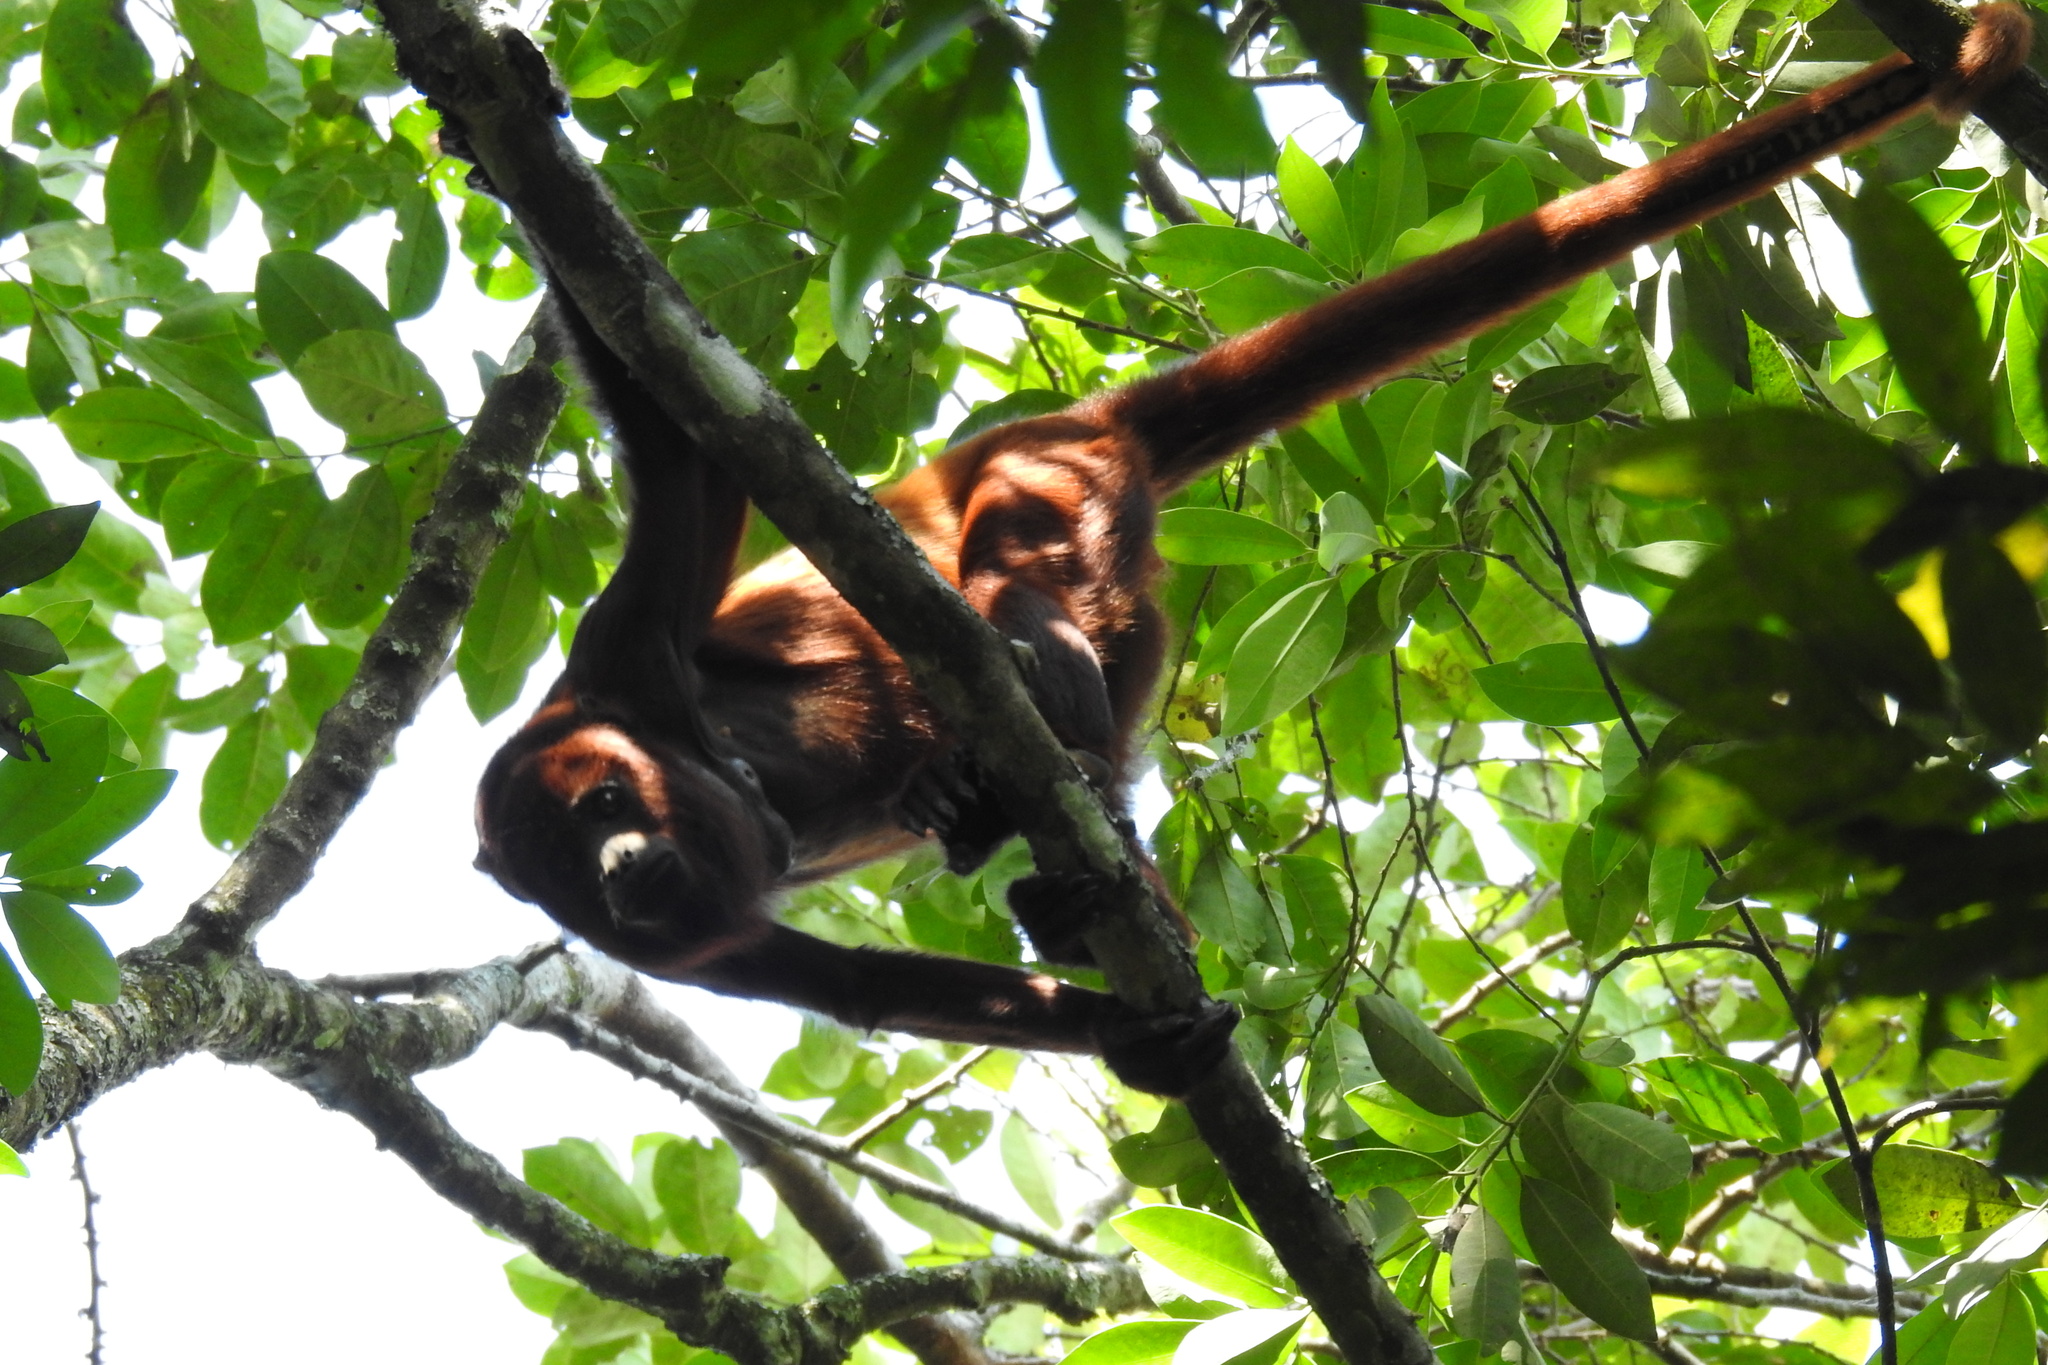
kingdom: Animalia
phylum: Chordata
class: Mammalia
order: Primates
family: Atelidae
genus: Alouatta
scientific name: Alouatta seniculus
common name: Venezuelan red howler
